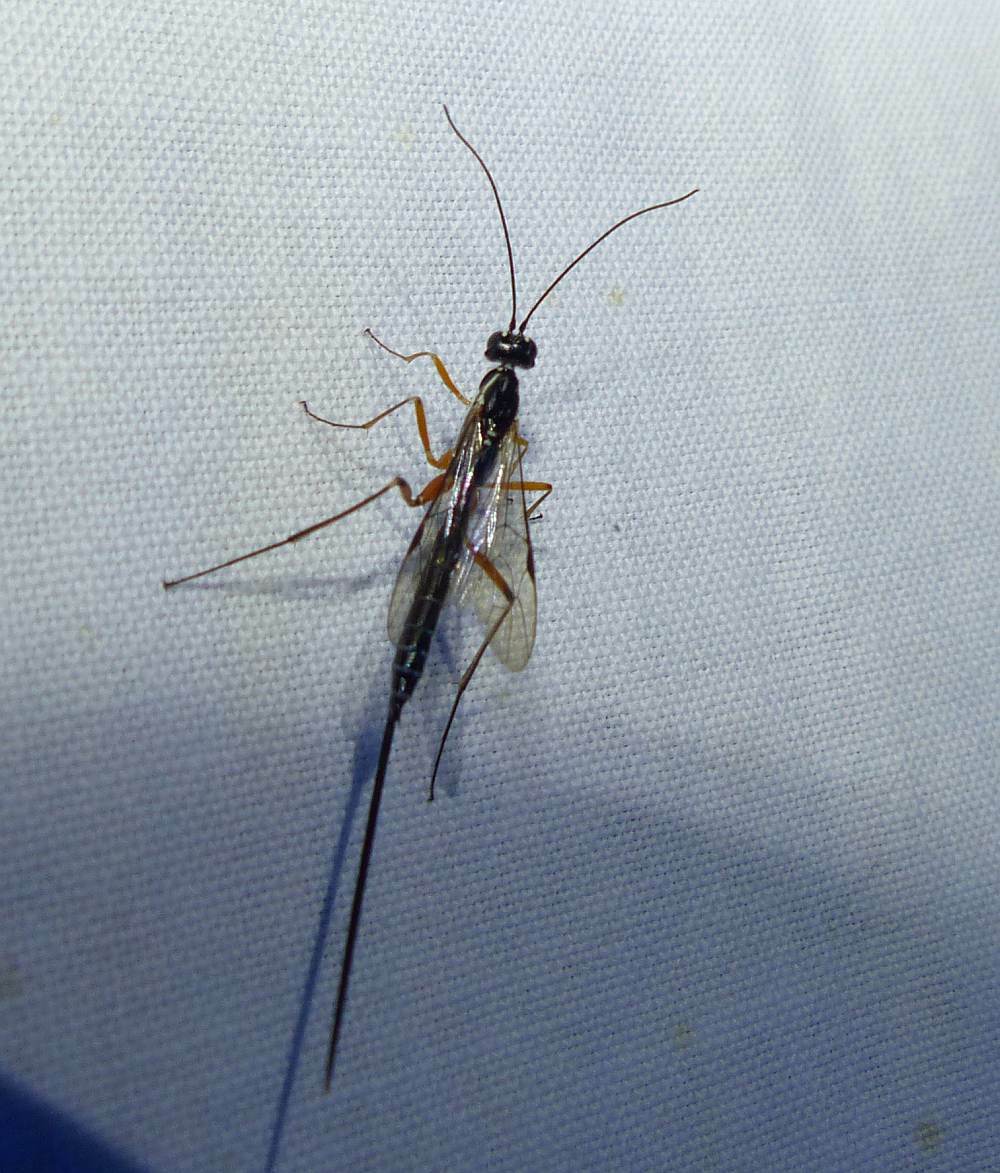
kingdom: Animalia
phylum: Arthropoda
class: Insecta
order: Hymenoptera
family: Ichneumonidae
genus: Podoschistus
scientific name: Podoschistus vittifrons
